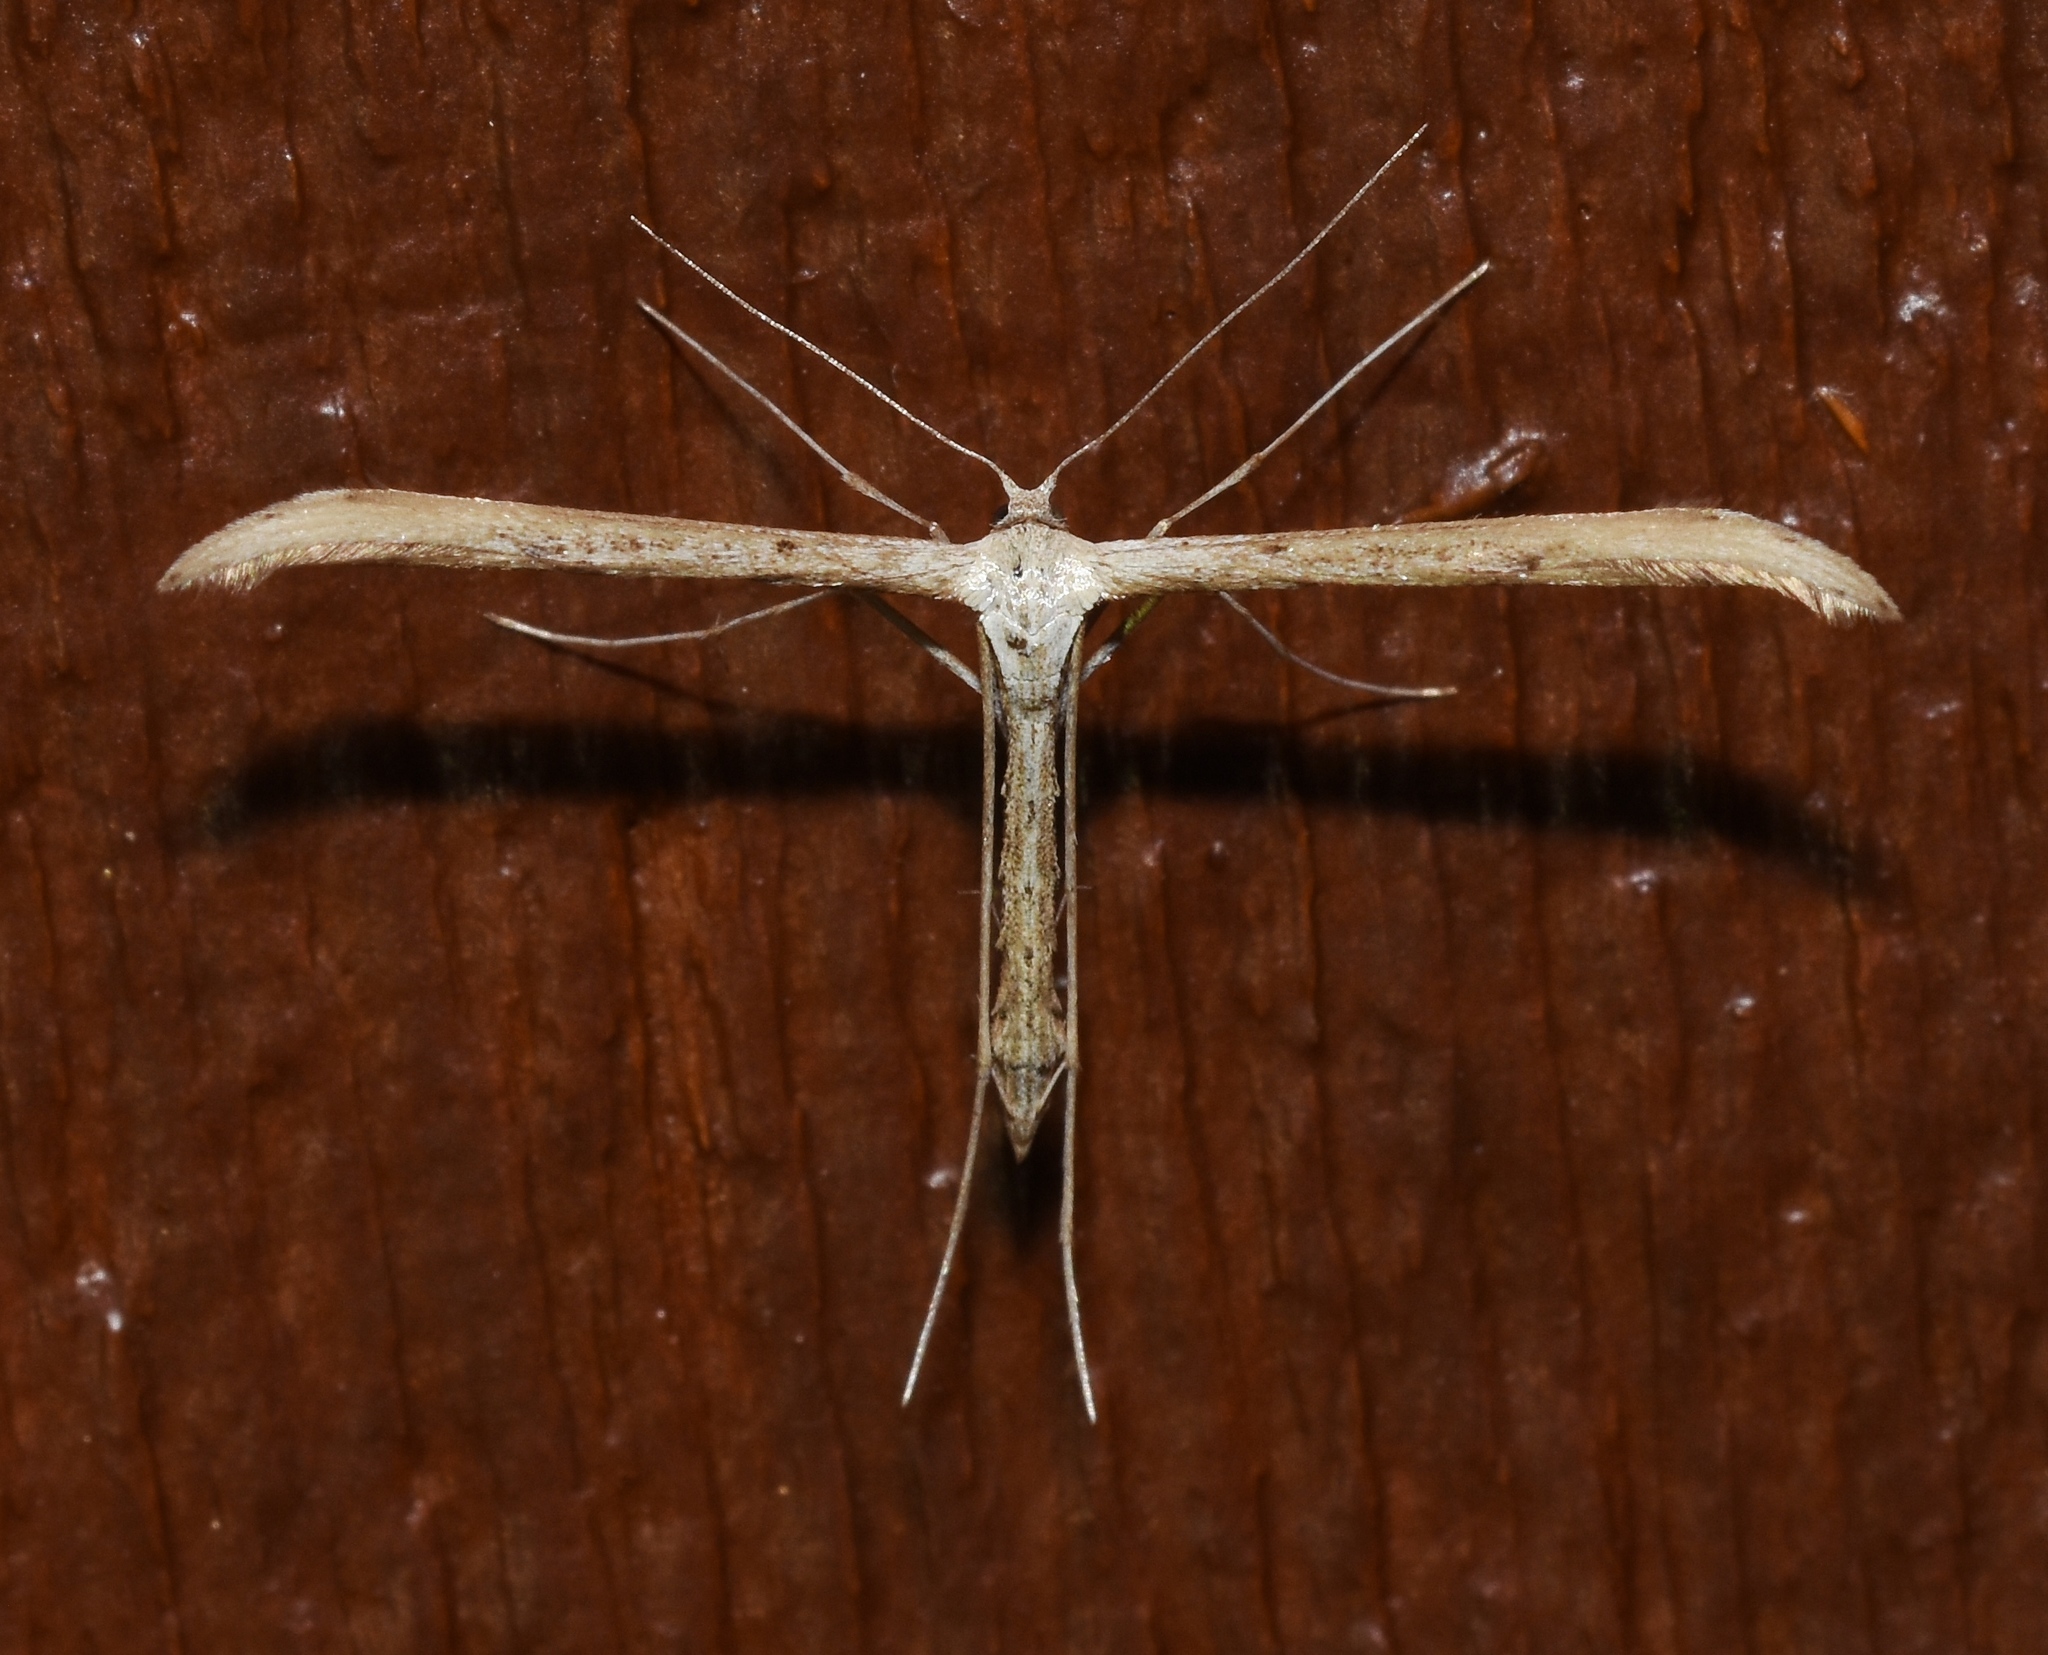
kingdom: Animalia
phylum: Arthropoda
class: Insecta
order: Lepidoptera
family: Pterophoridae
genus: Emmelina
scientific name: Emmelina monodactyla
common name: Common plume
